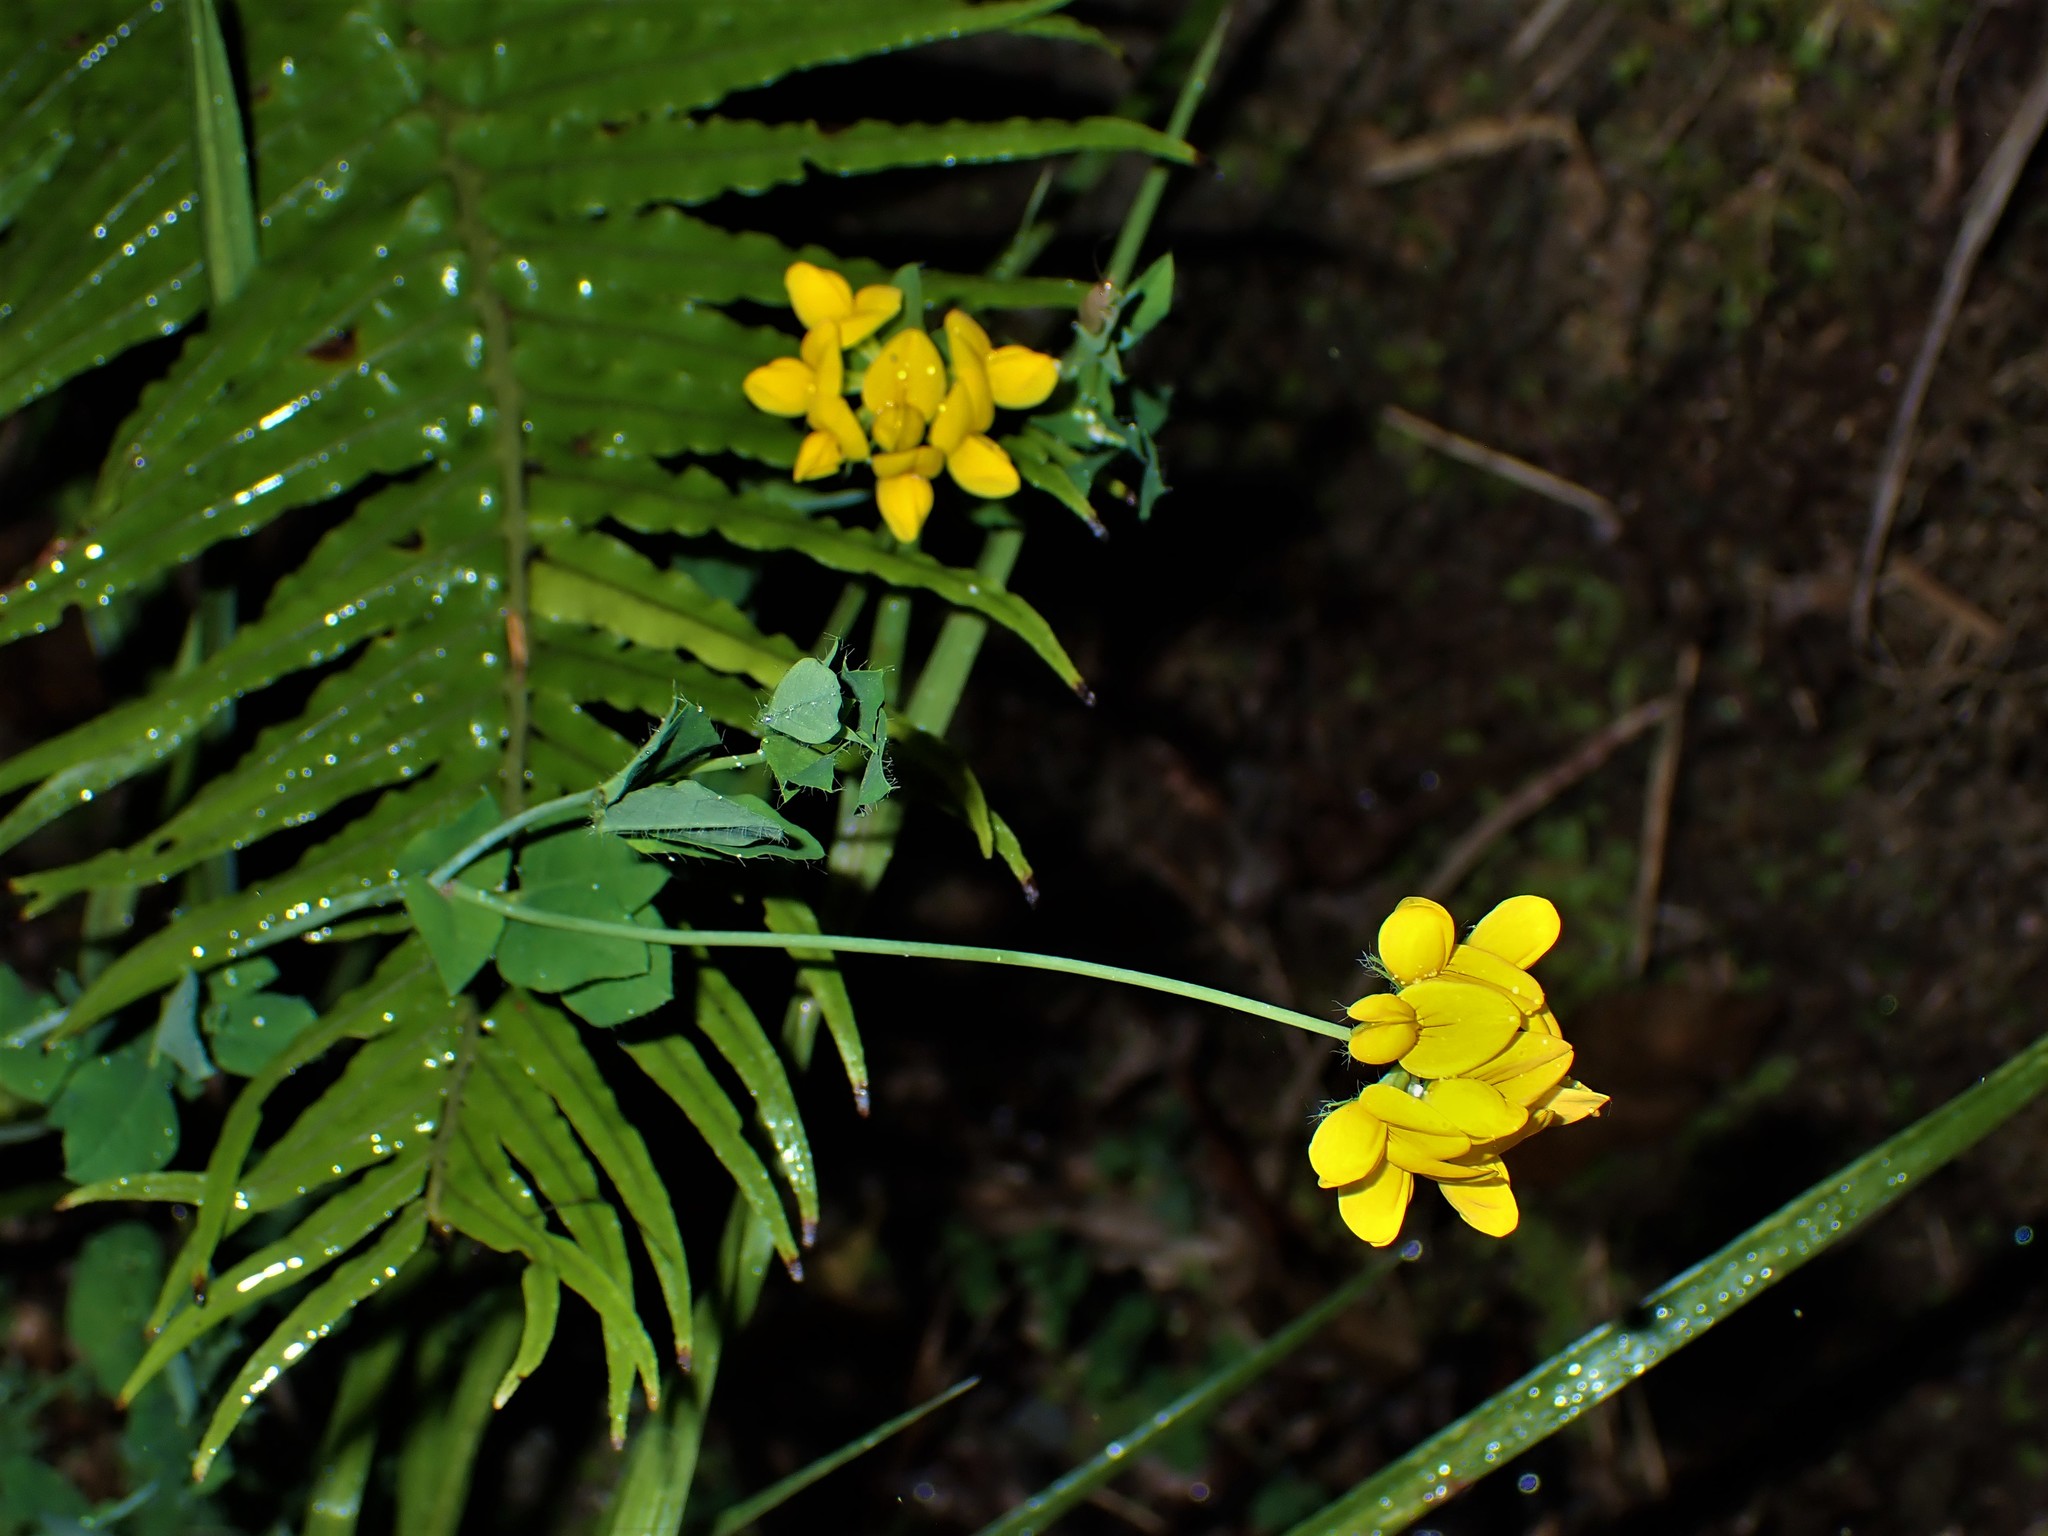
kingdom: Plantae
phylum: Tracheophyta
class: Magnoliopsida
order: Fabales
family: Fabaceae
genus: Lotus
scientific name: Lotus pedunculatus
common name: Greater birdsfoot-trefoil
